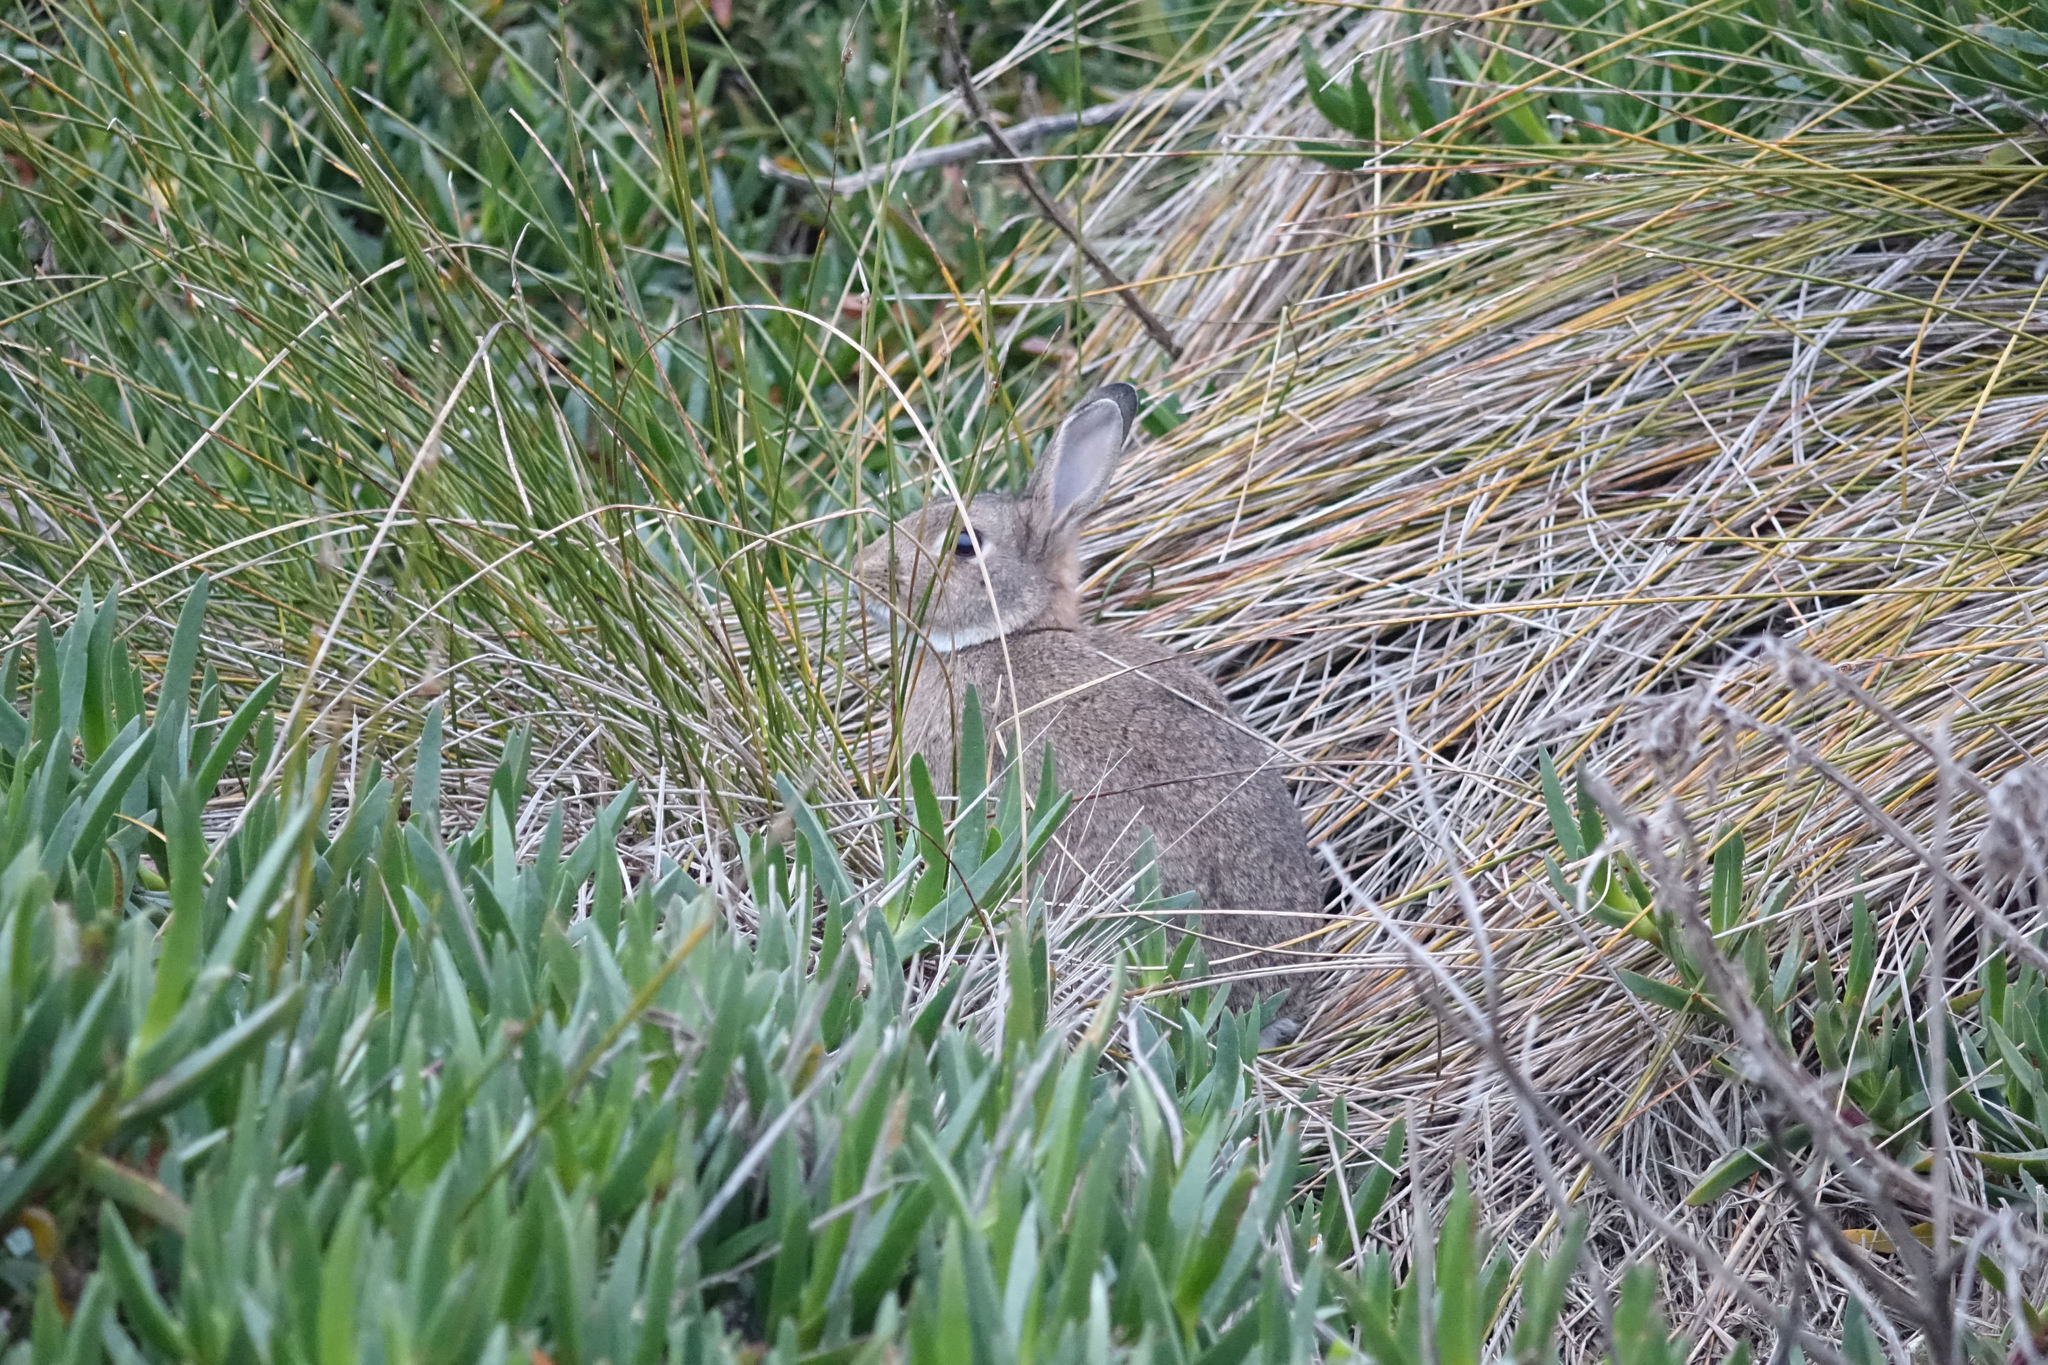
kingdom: Animalia
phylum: Chordata
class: Mammalia
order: Lagomorpha
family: Leporidae
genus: Oryctolagus
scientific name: Oryctolagus cuniculus
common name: European rabbit
